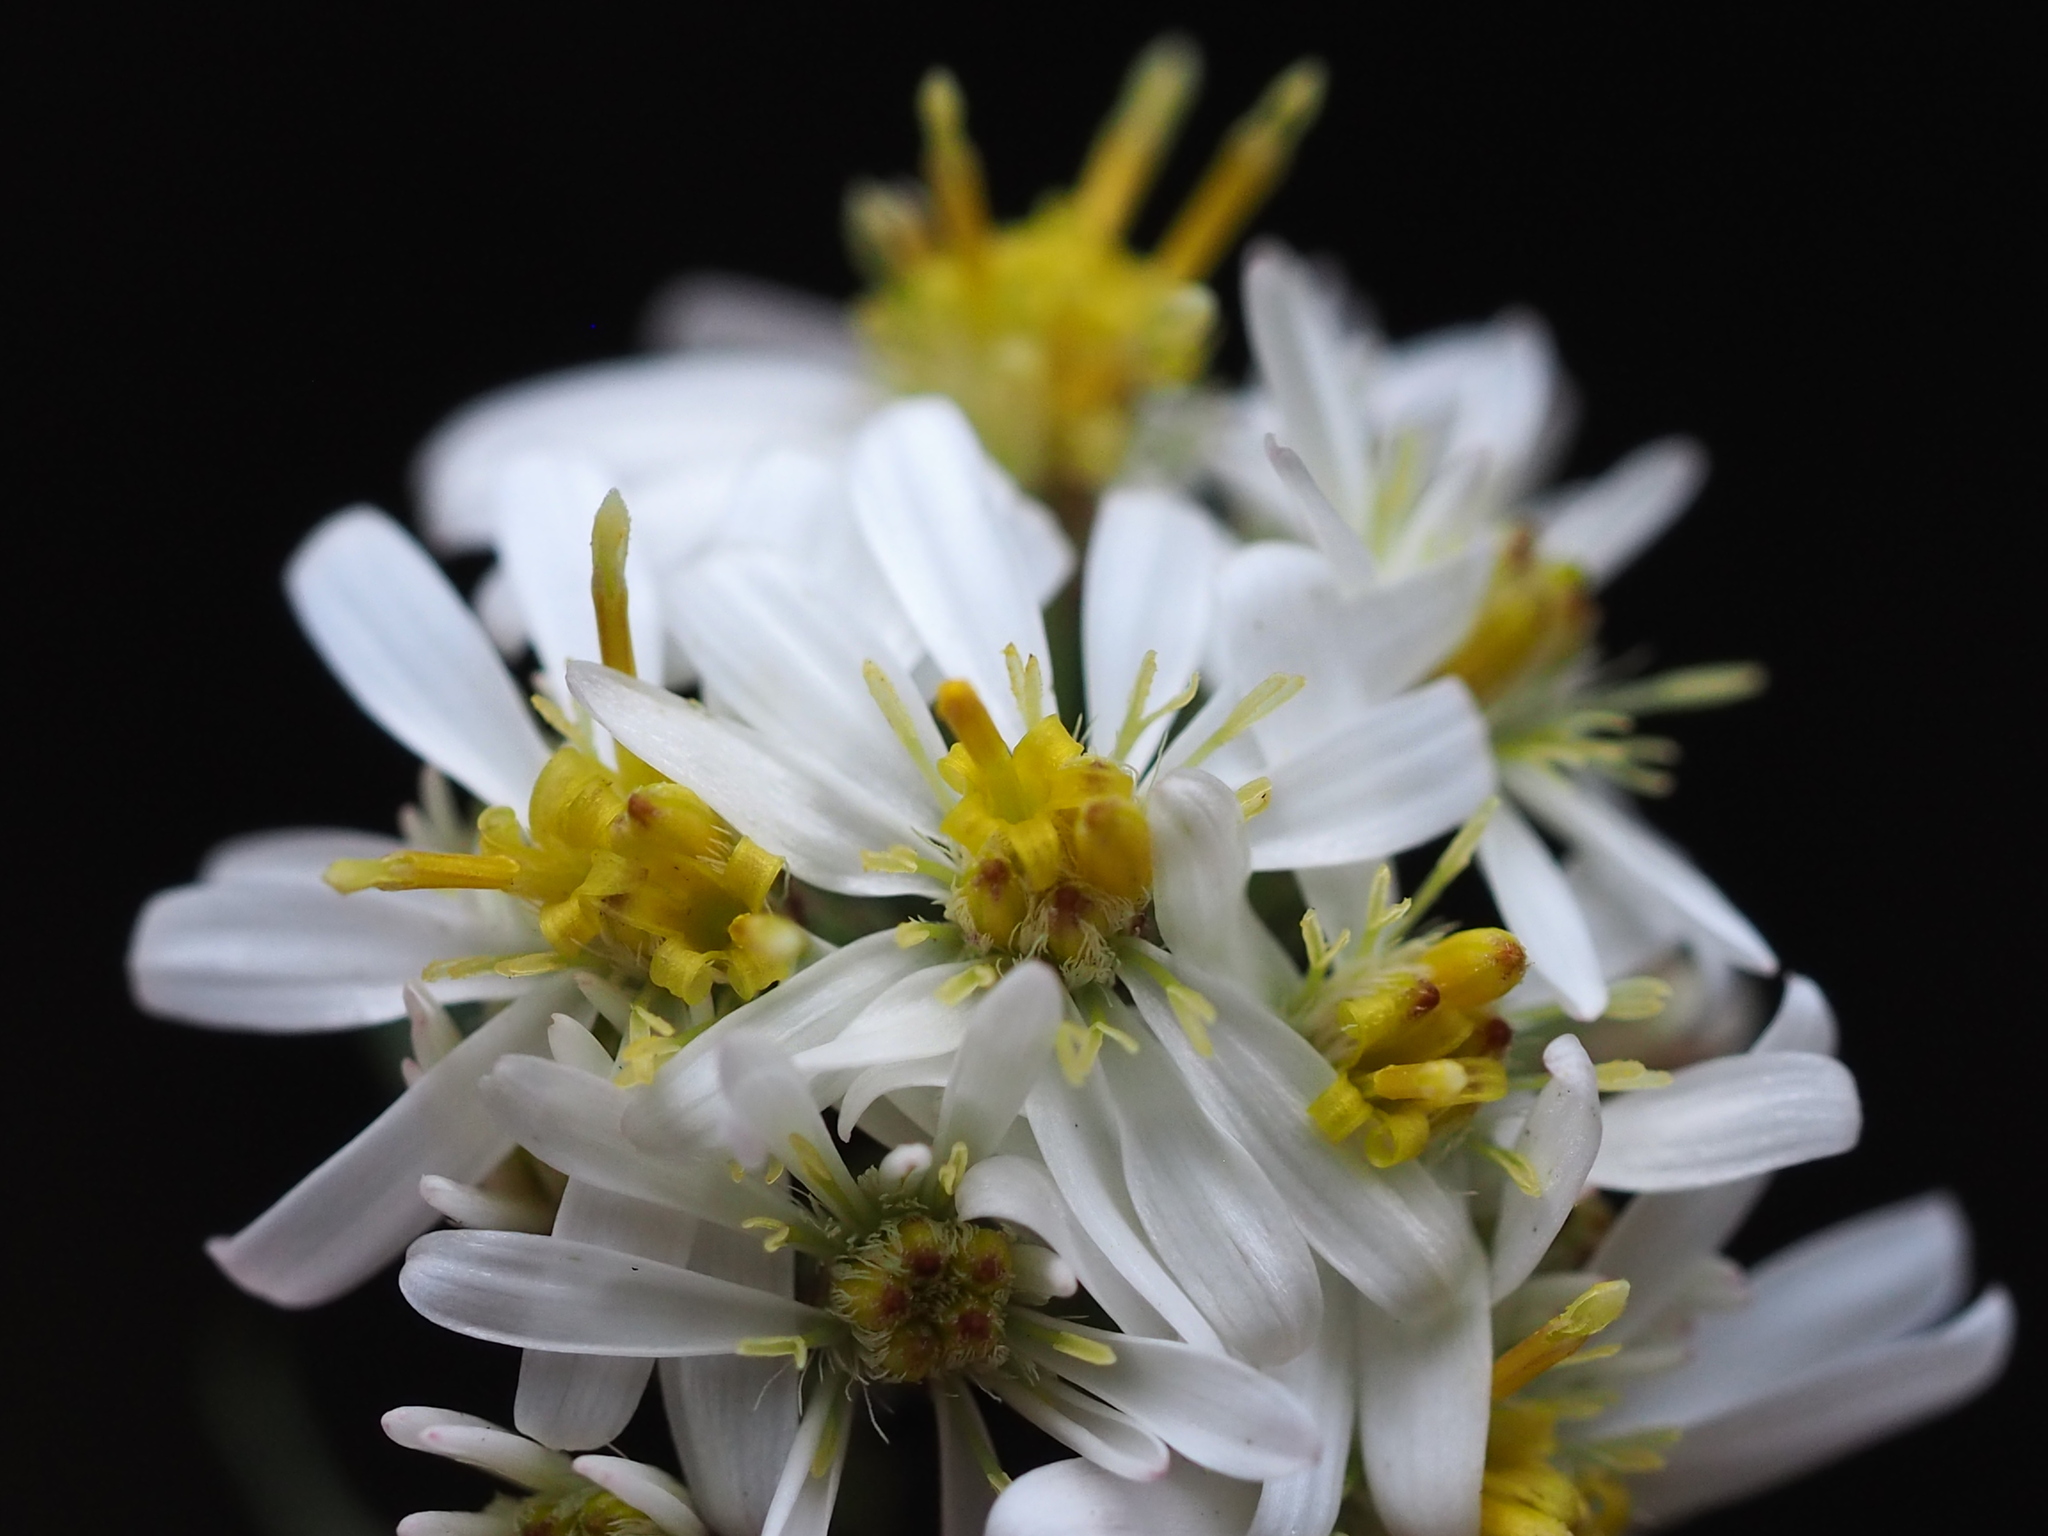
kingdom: Plantae
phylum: Tracheophyta
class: Magnoliopsida
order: Asterales
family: Asteraceae
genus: Aster
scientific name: Aster taiwanensis
